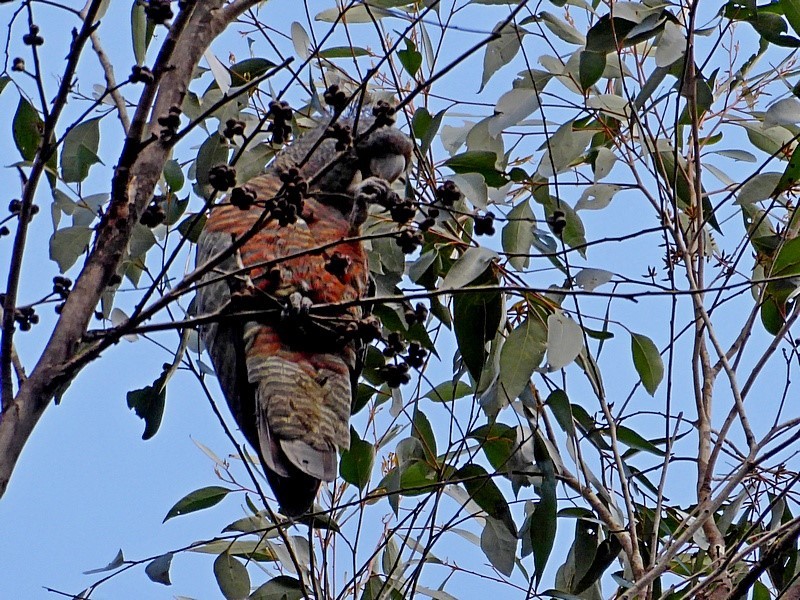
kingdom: Animalia
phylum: Chordata
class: Aves
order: Psittaciformes
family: Psittacidae
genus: Callocephalon
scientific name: Callocephalon fimbriatum
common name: Gang-gang cockatoo
